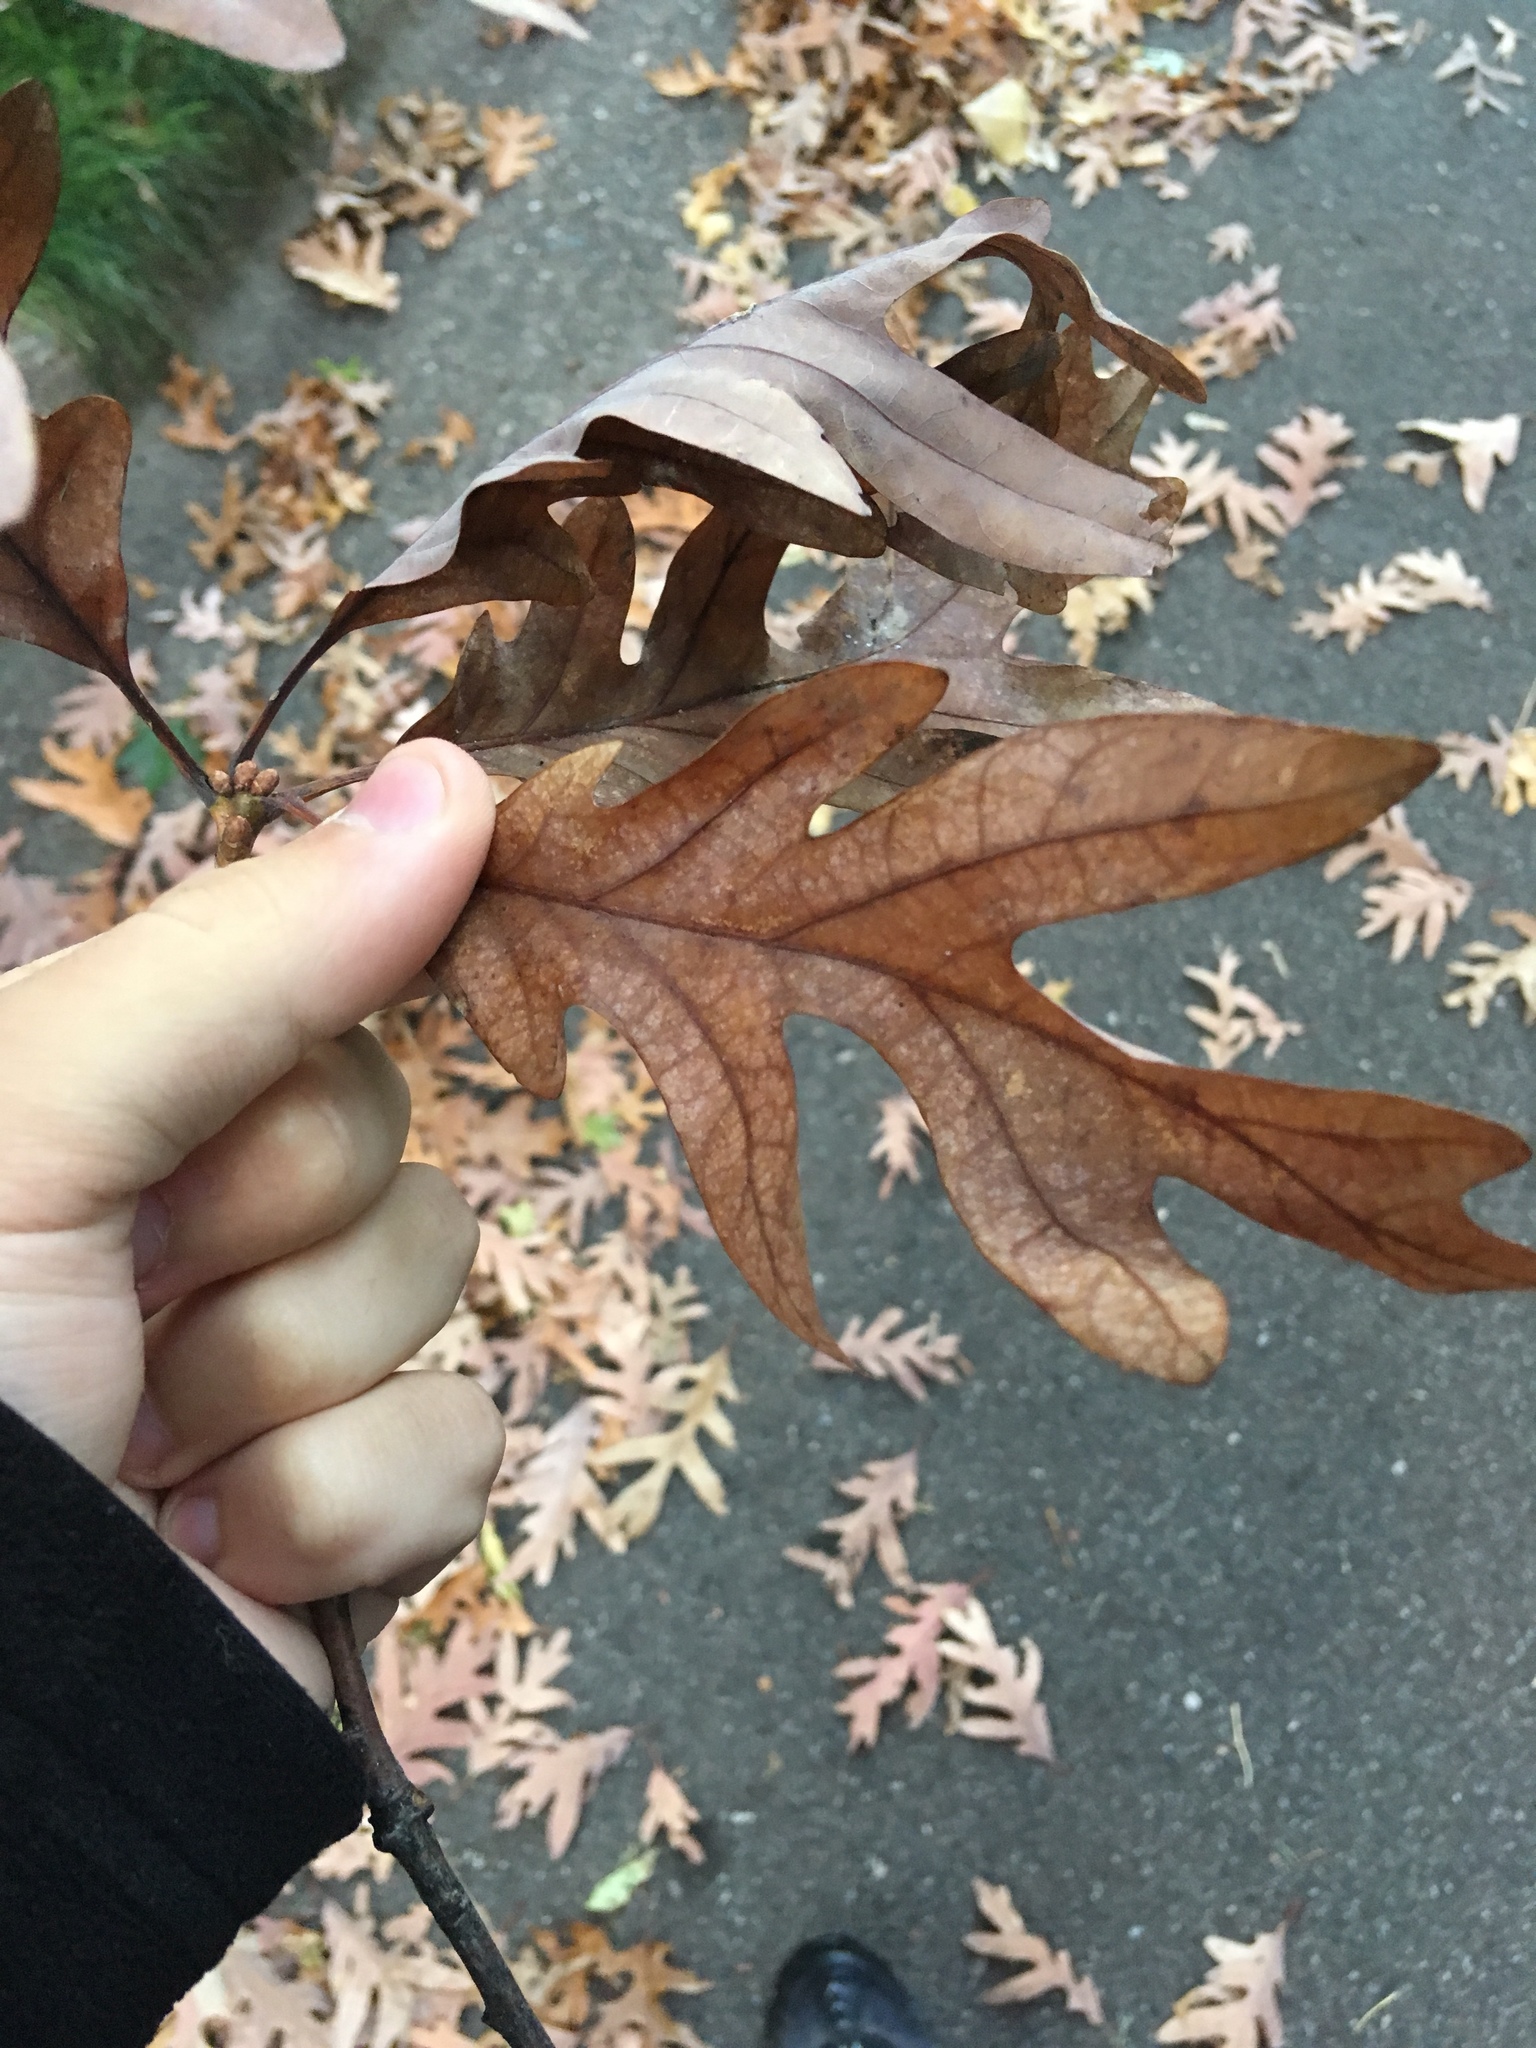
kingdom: Plantae
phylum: Tracheophyta
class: Magnoliopsida
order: Fagales
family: Fagaceae
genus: Quercus
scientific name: Quercus alba
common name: White oak
